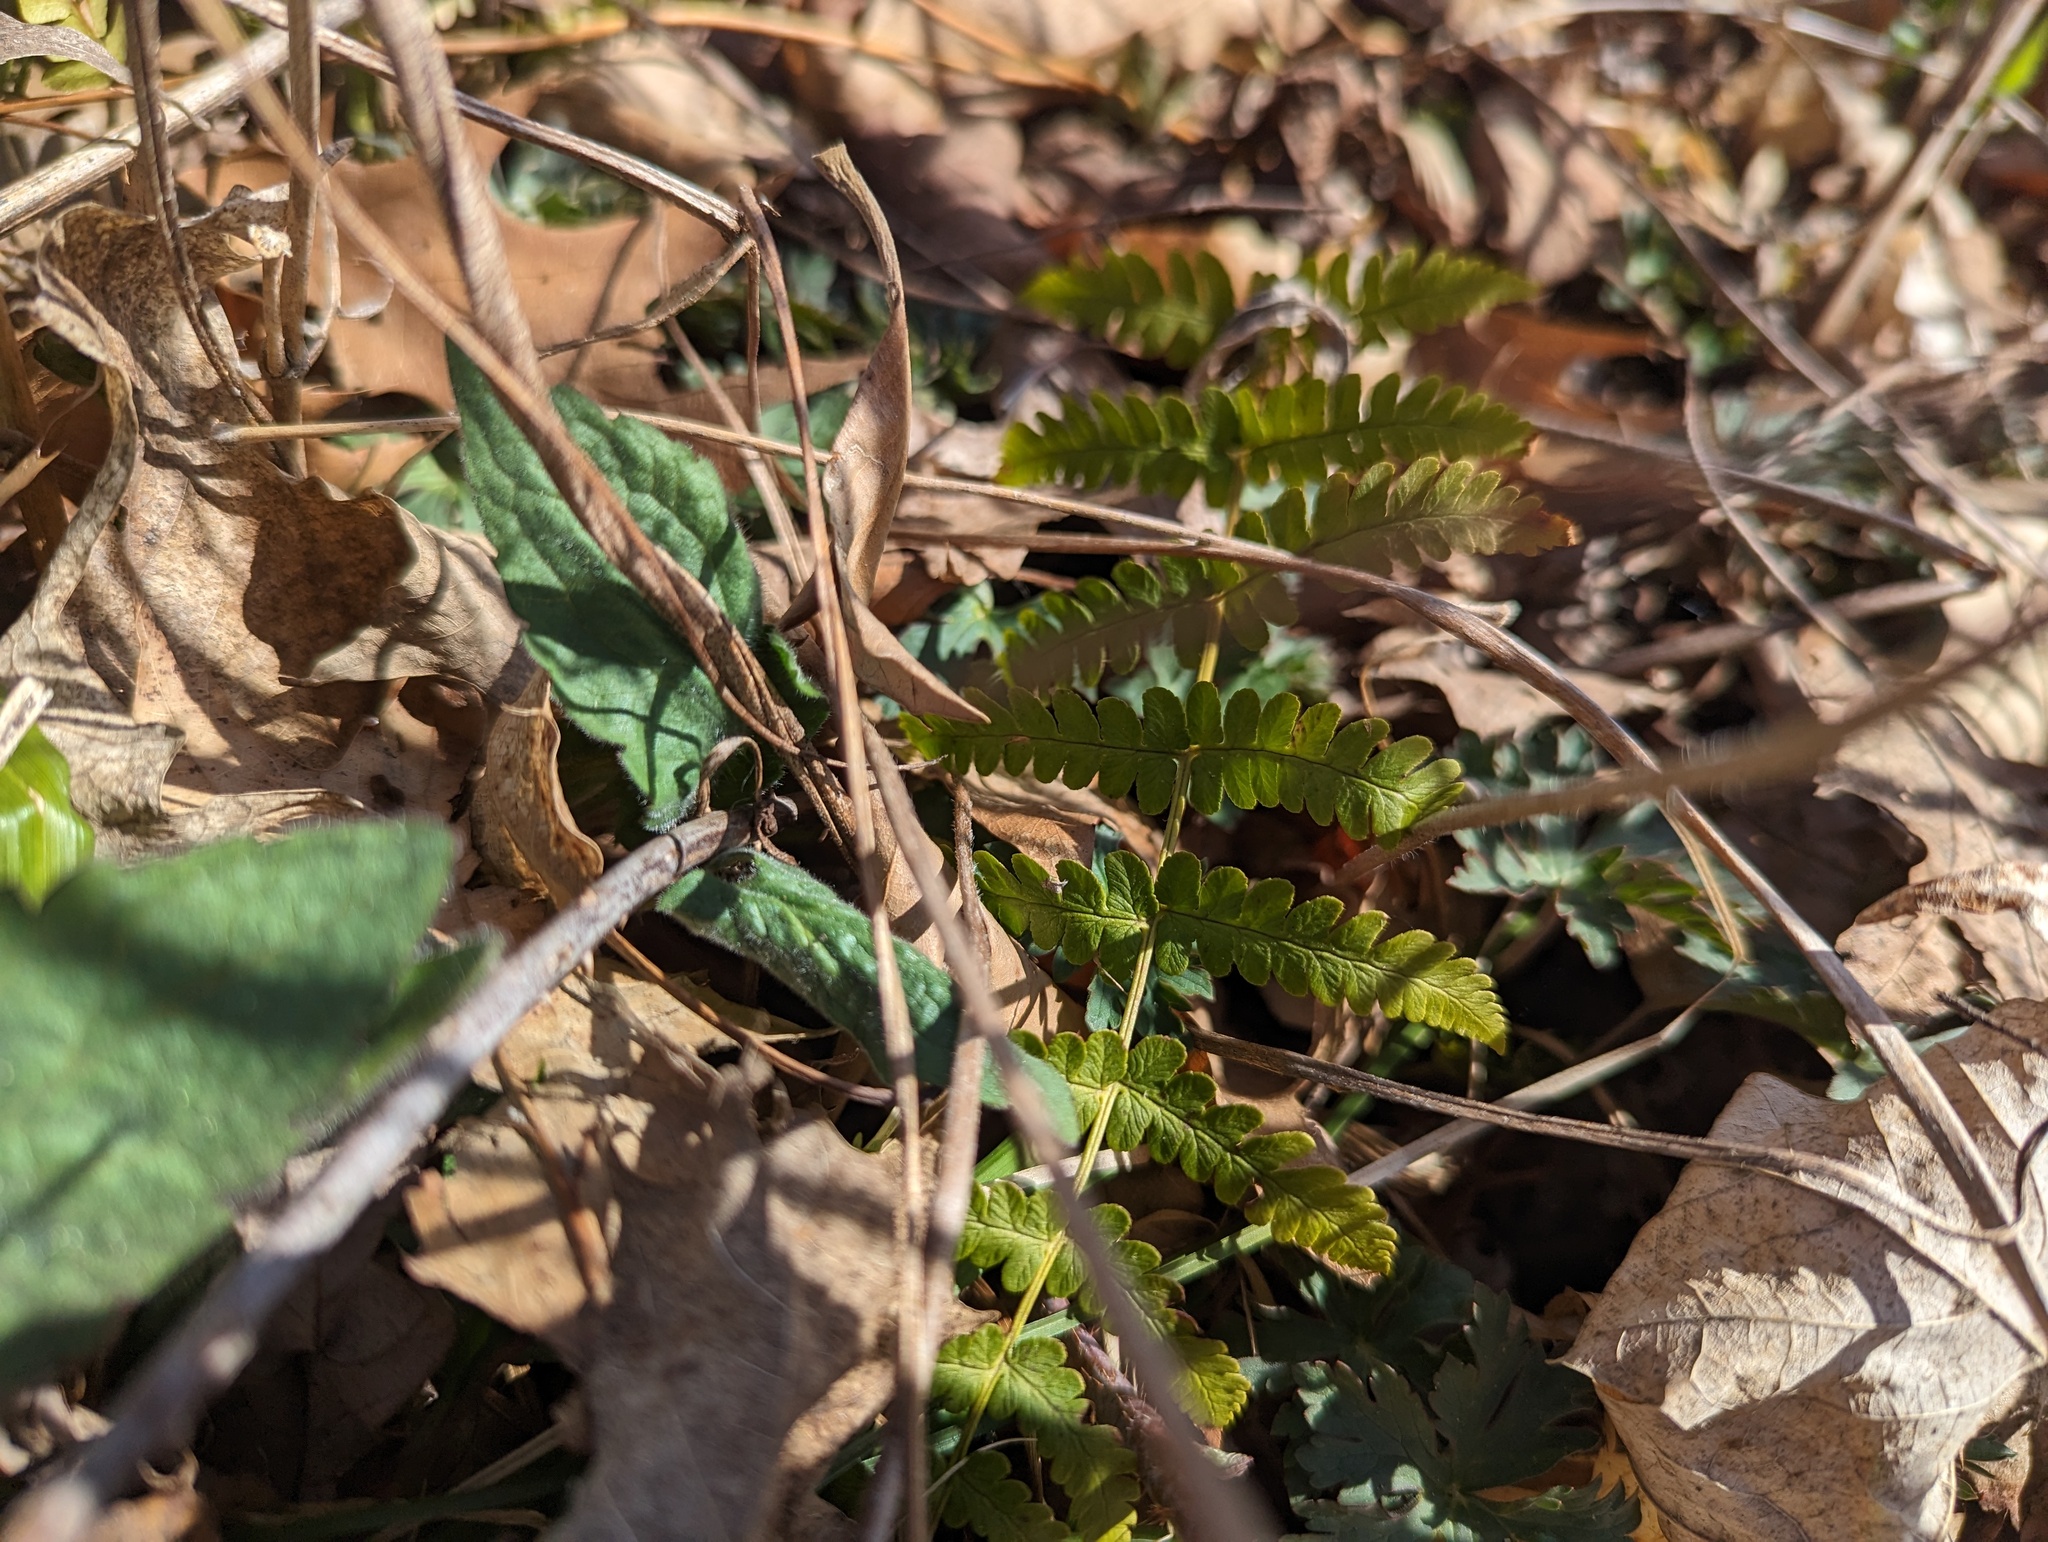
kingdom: Plantae
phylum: Tracheophyta
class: Polypodiopsida
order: Polypodiales
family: Dryopteridaceae
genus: Dryopteris
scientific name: Dryopteris marginalis
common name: Marginal wood fern
